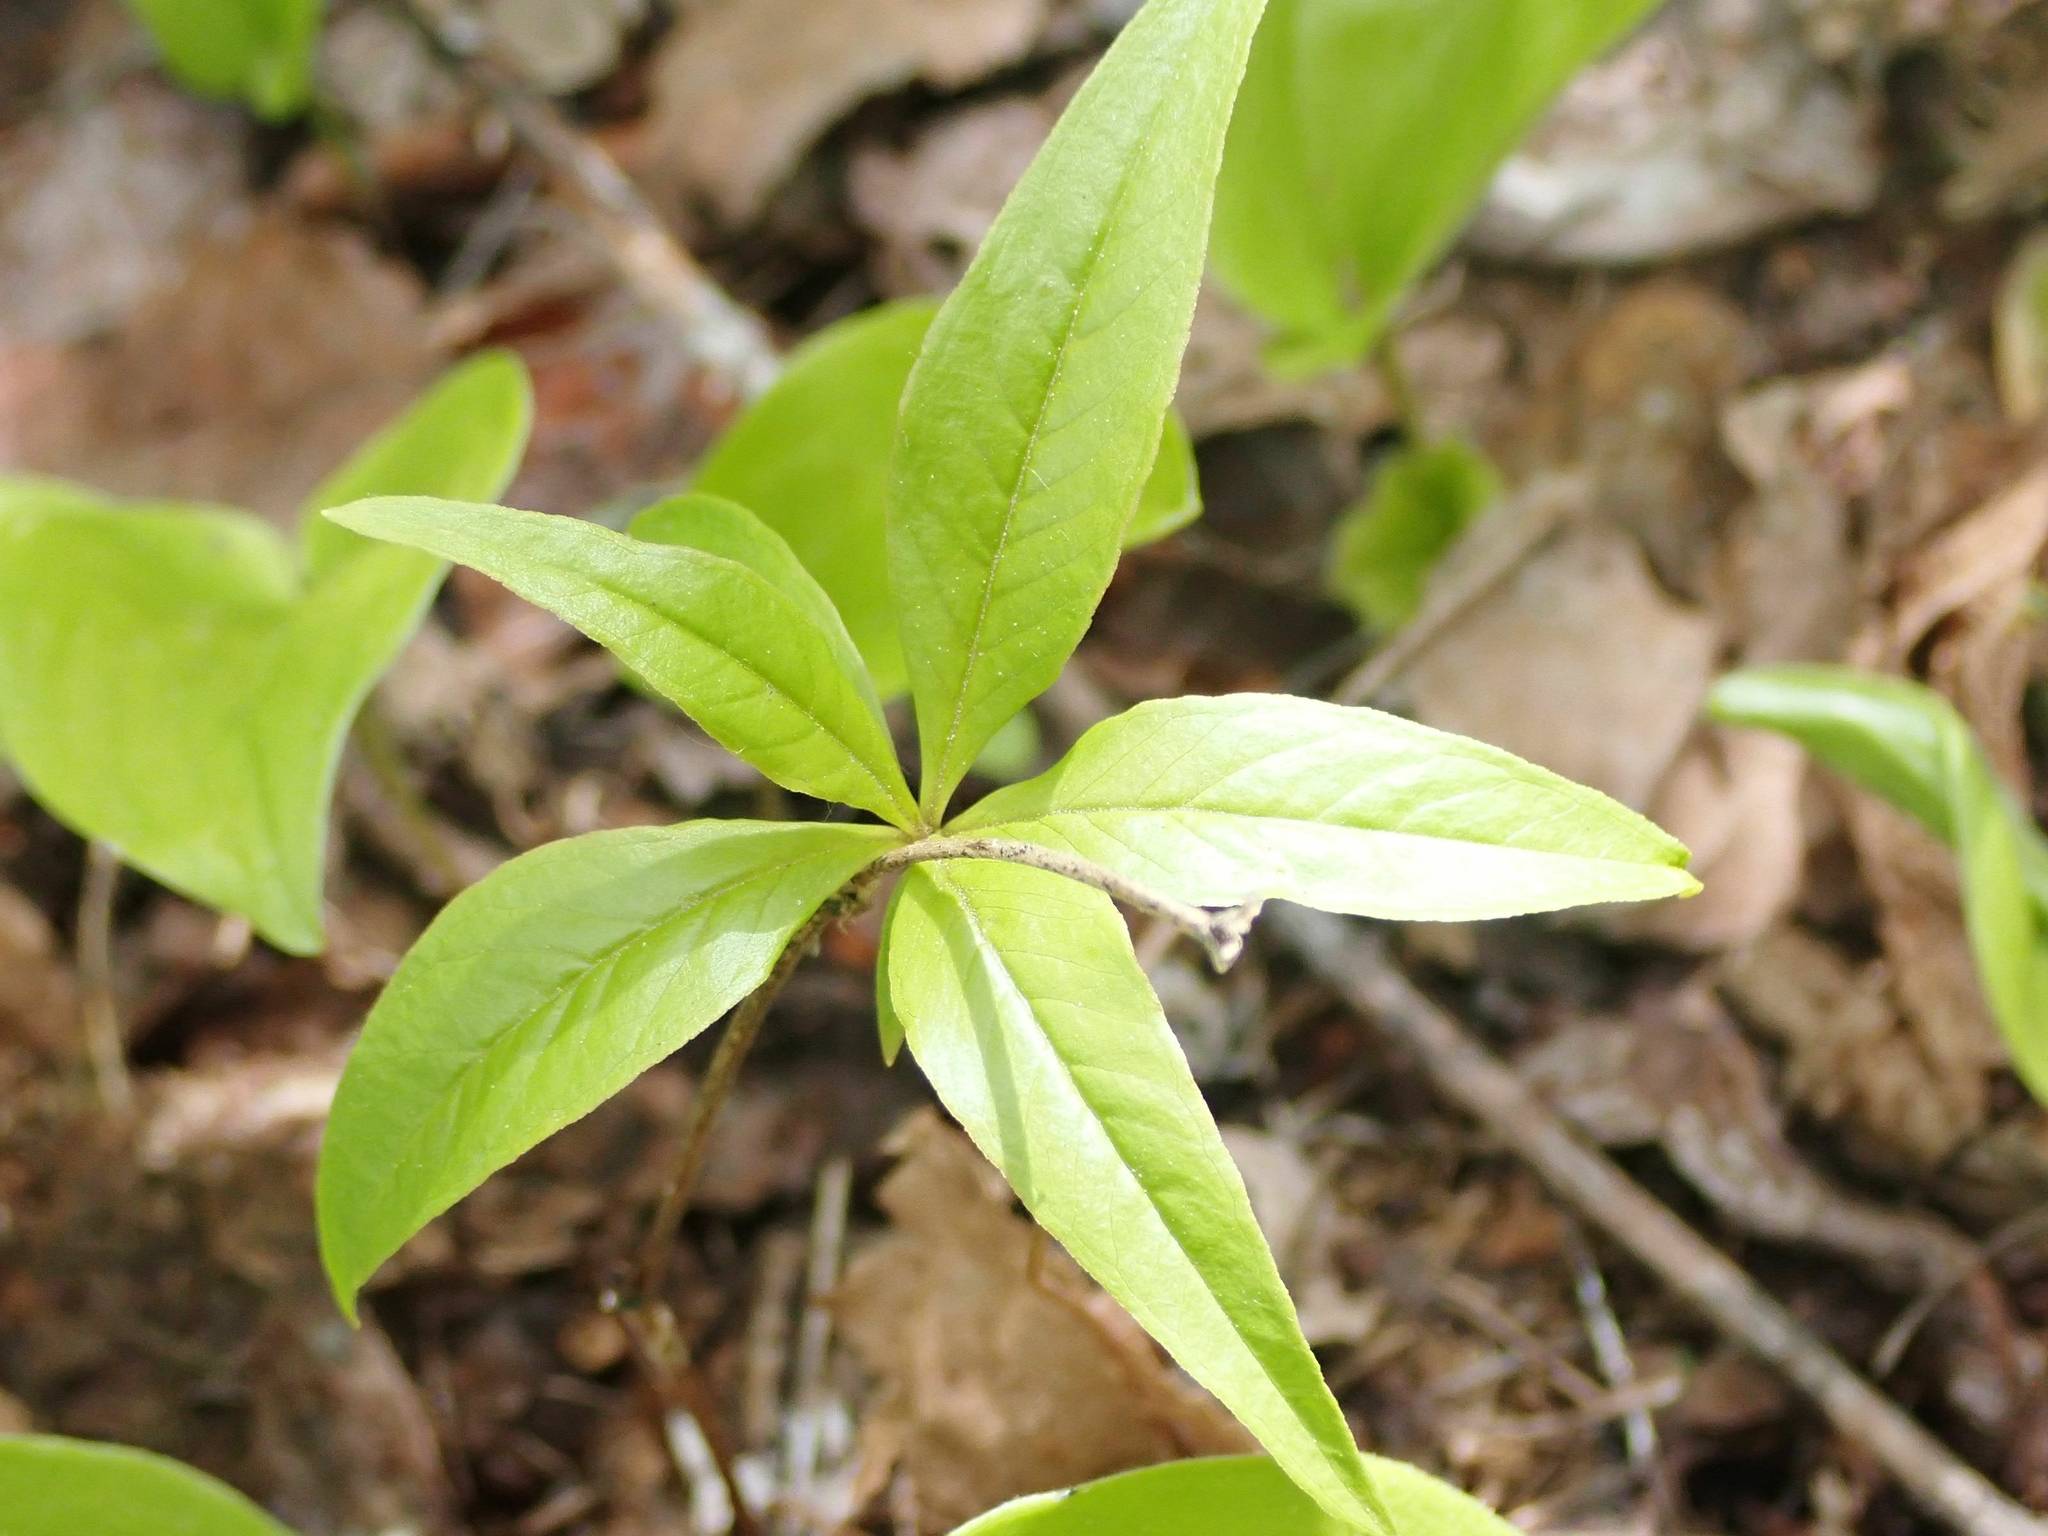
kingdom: Plantae
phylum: Tracheophyta
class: Magnoliopsida
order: Ericales
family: Primulaceae
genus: Lysimachia
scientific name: Lysimachia borealis
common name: American starflower
